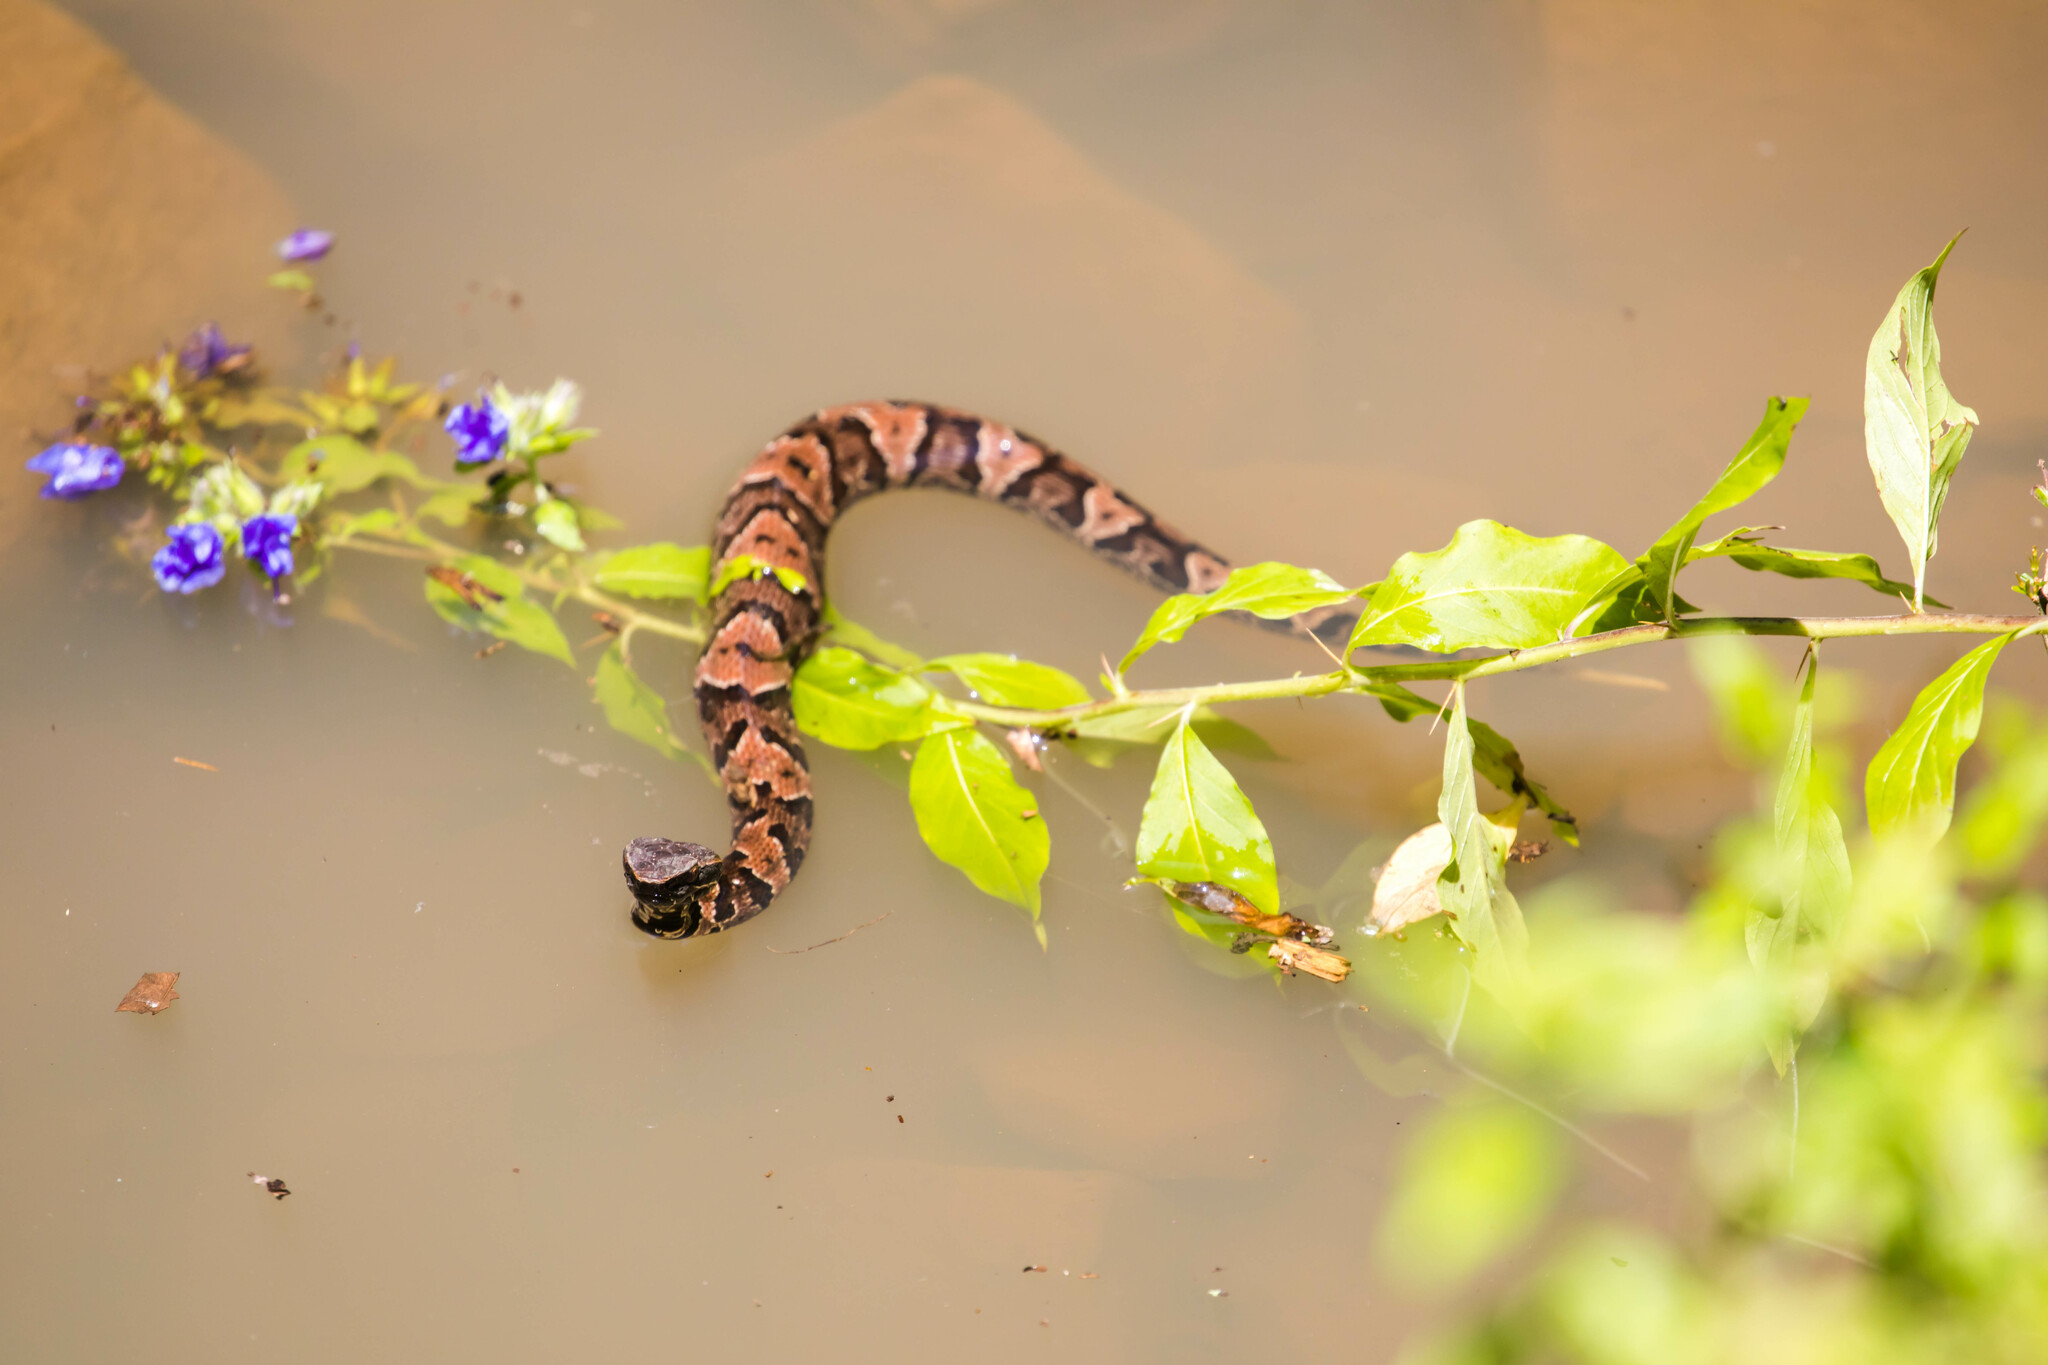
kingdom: Animalia
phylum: Chordata
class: Squamata
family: Viperidae
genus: Agkistrodon
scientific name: Agkistrodon piscivorus
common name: Cottonmouth
